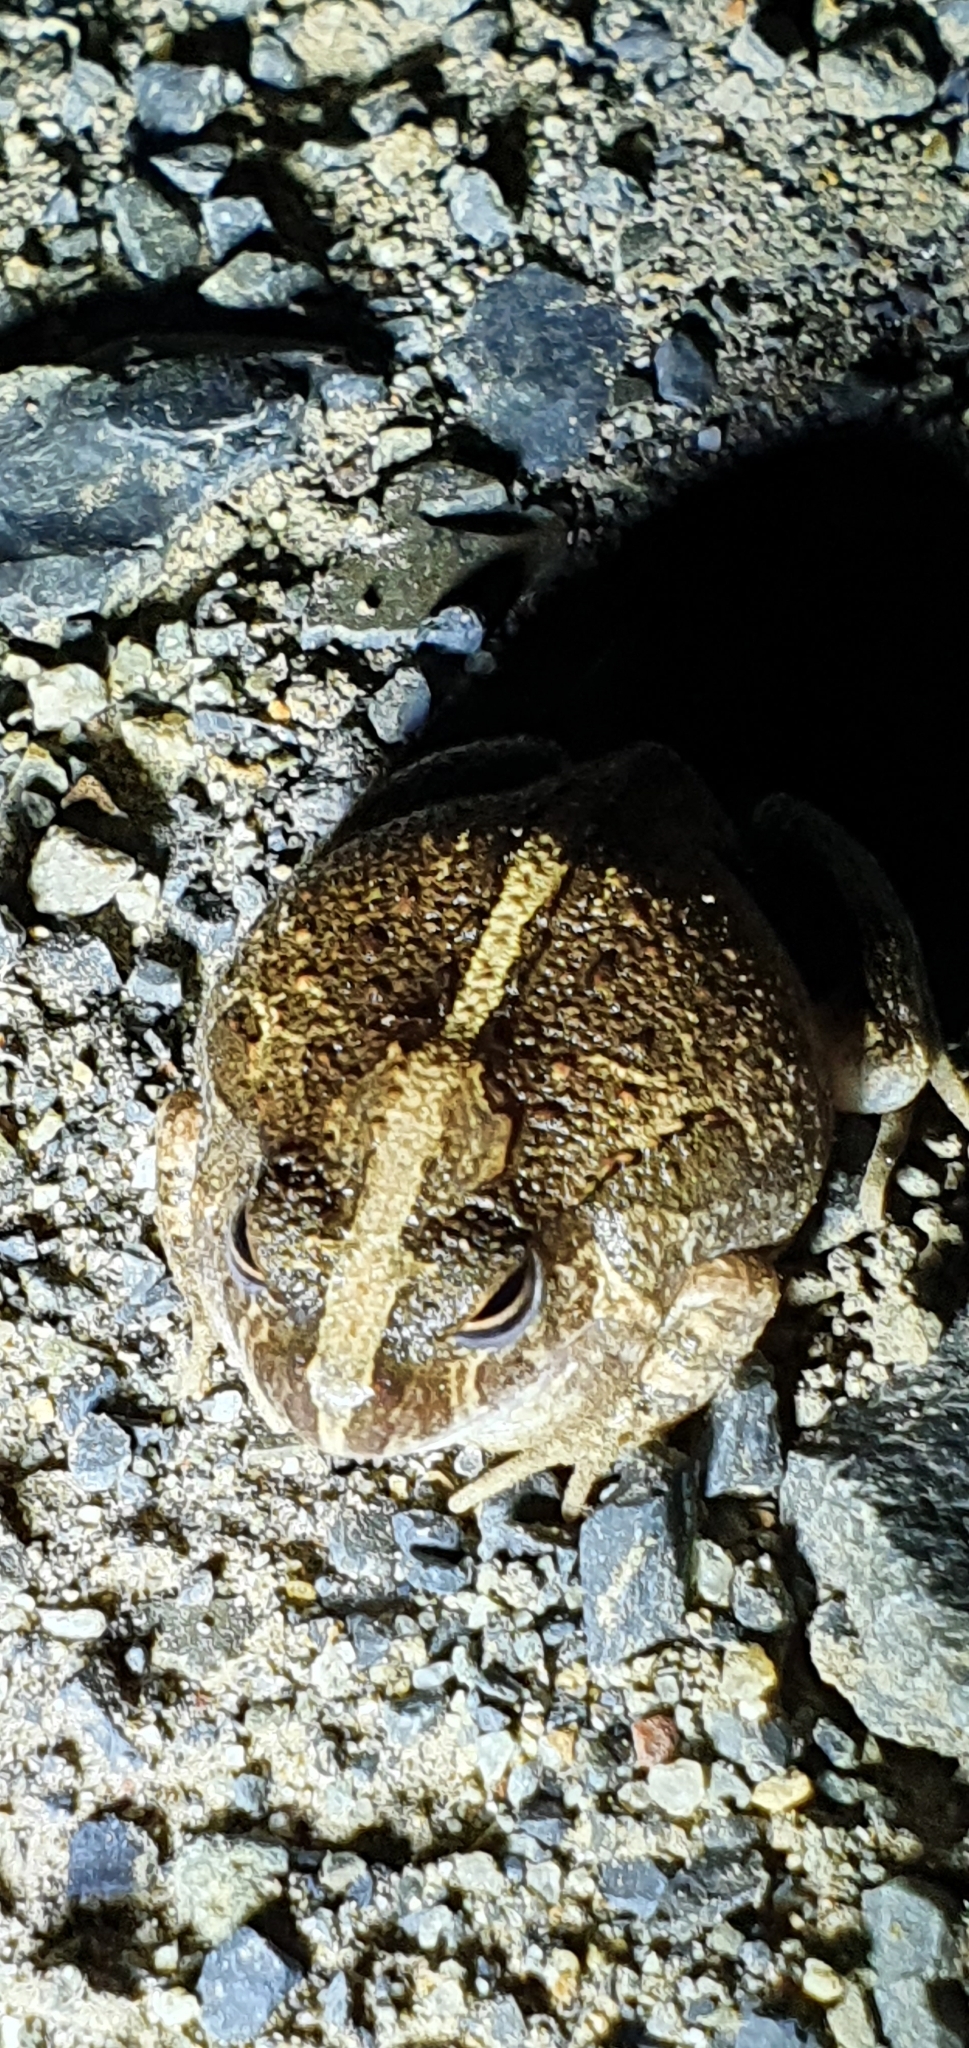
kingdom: Animalia
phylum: Chordata
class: Amphibia
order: Anura
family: Limnodynastidae
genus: Platyplectrum
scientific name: Platyplectrum ornatum
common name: Ornate burrowing frog
